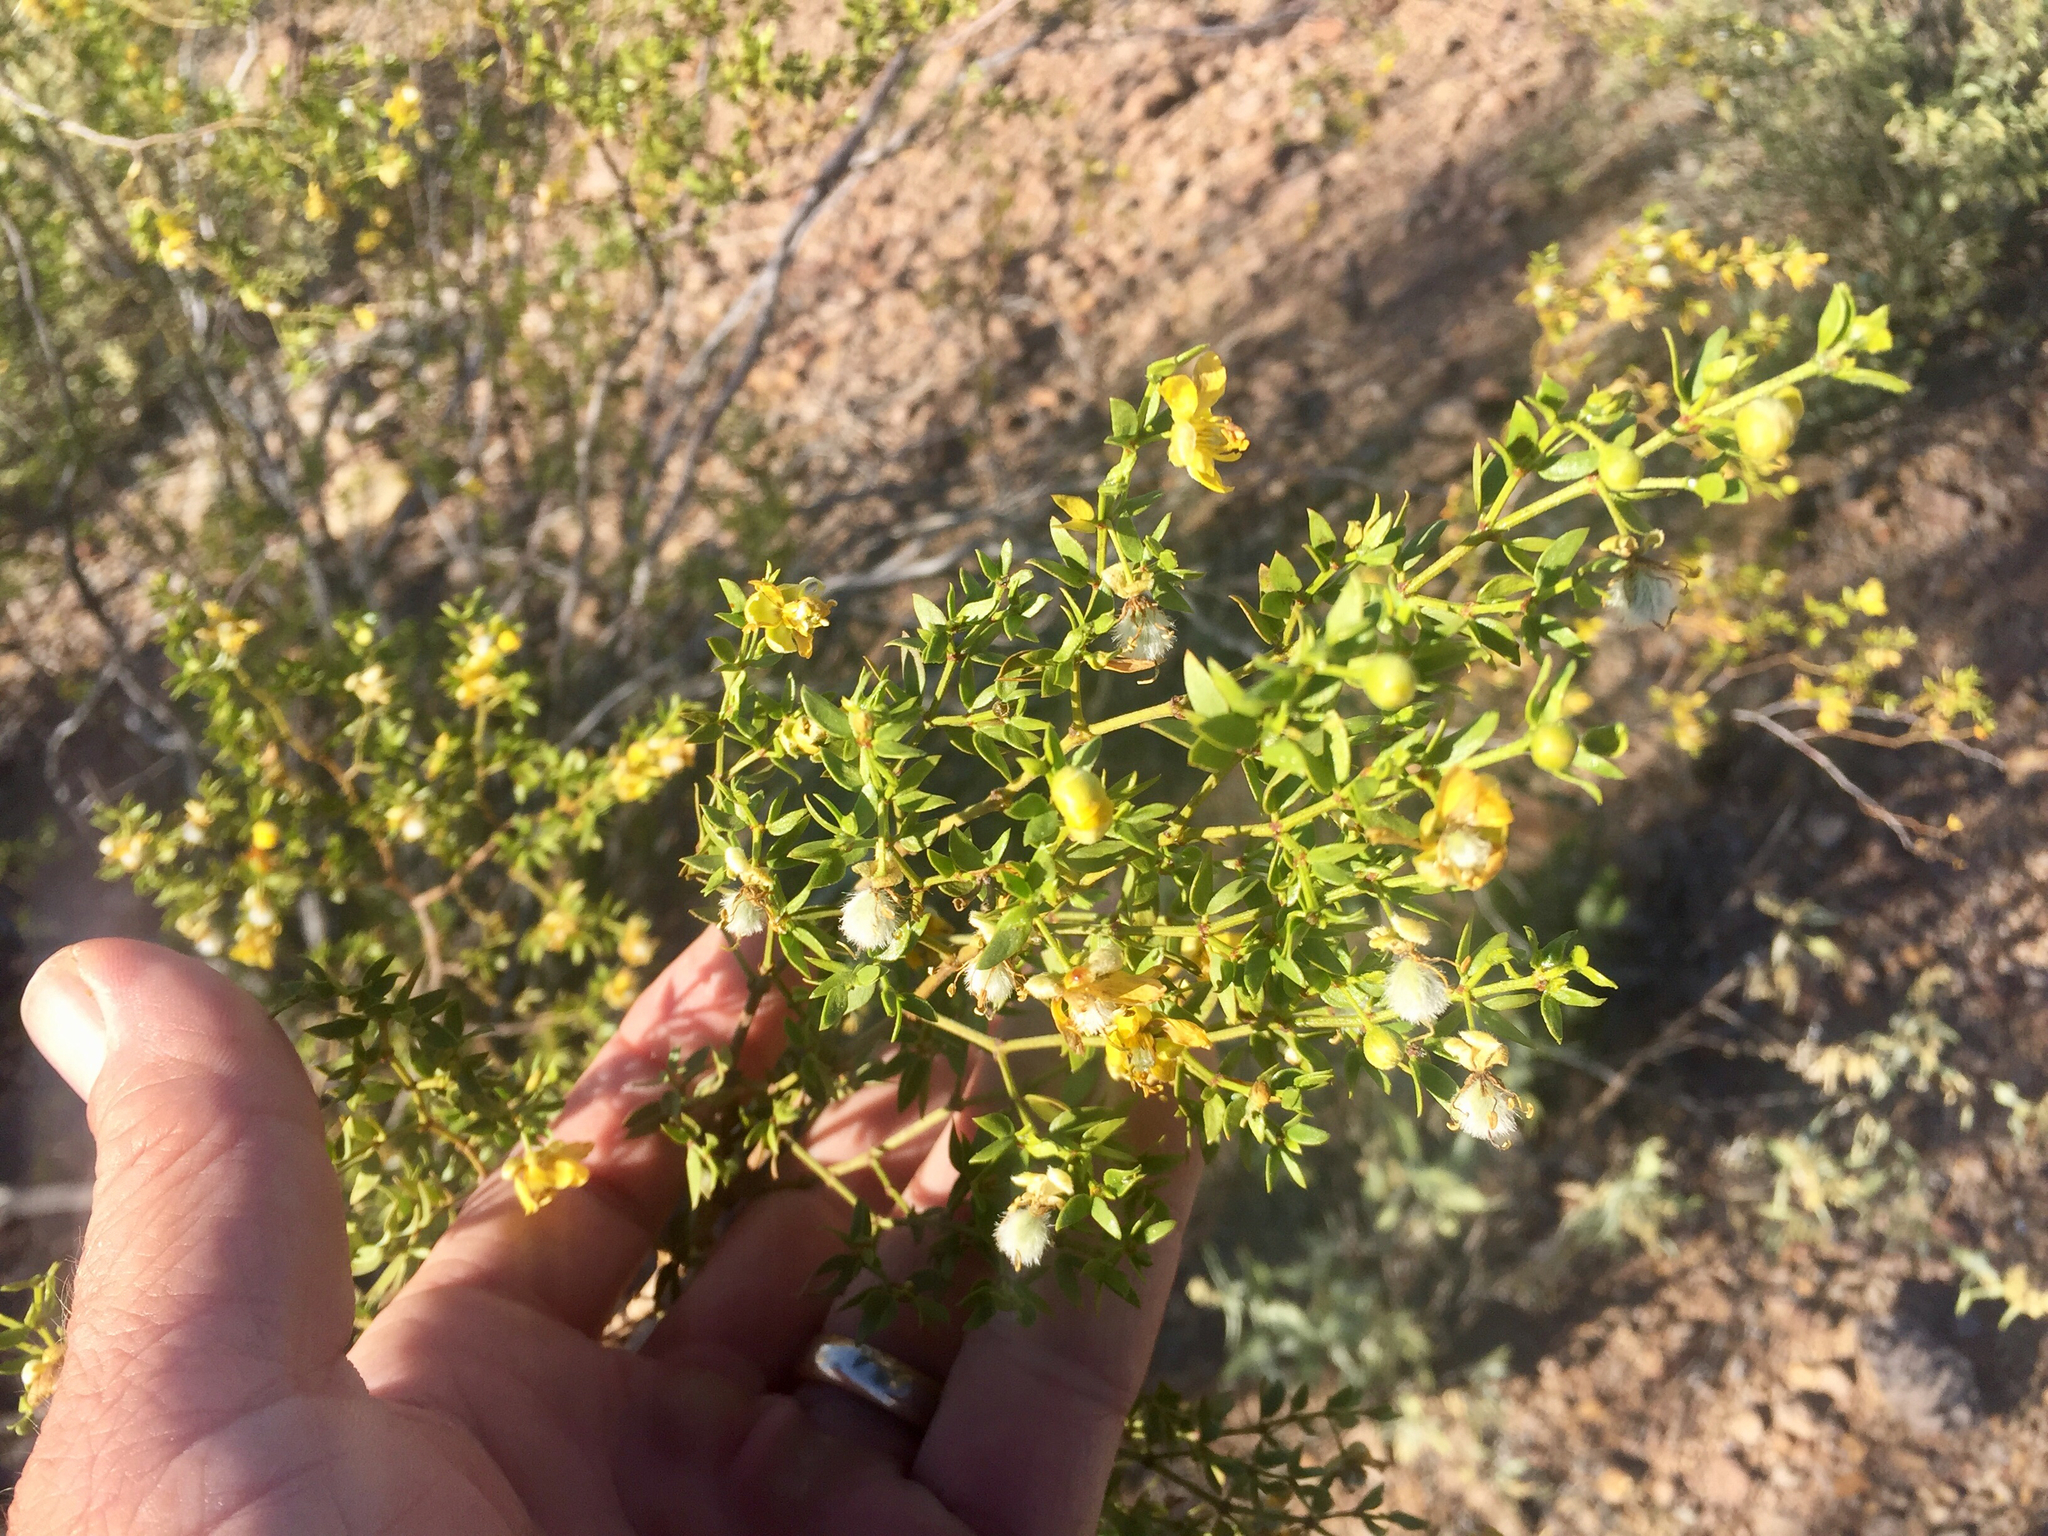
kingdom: Plantae
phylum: Tracheophyta
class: Magnoliopsida
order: Zygophyllales
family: Zygophyllaceae
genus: Larrea
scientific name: Larrea tridentata
